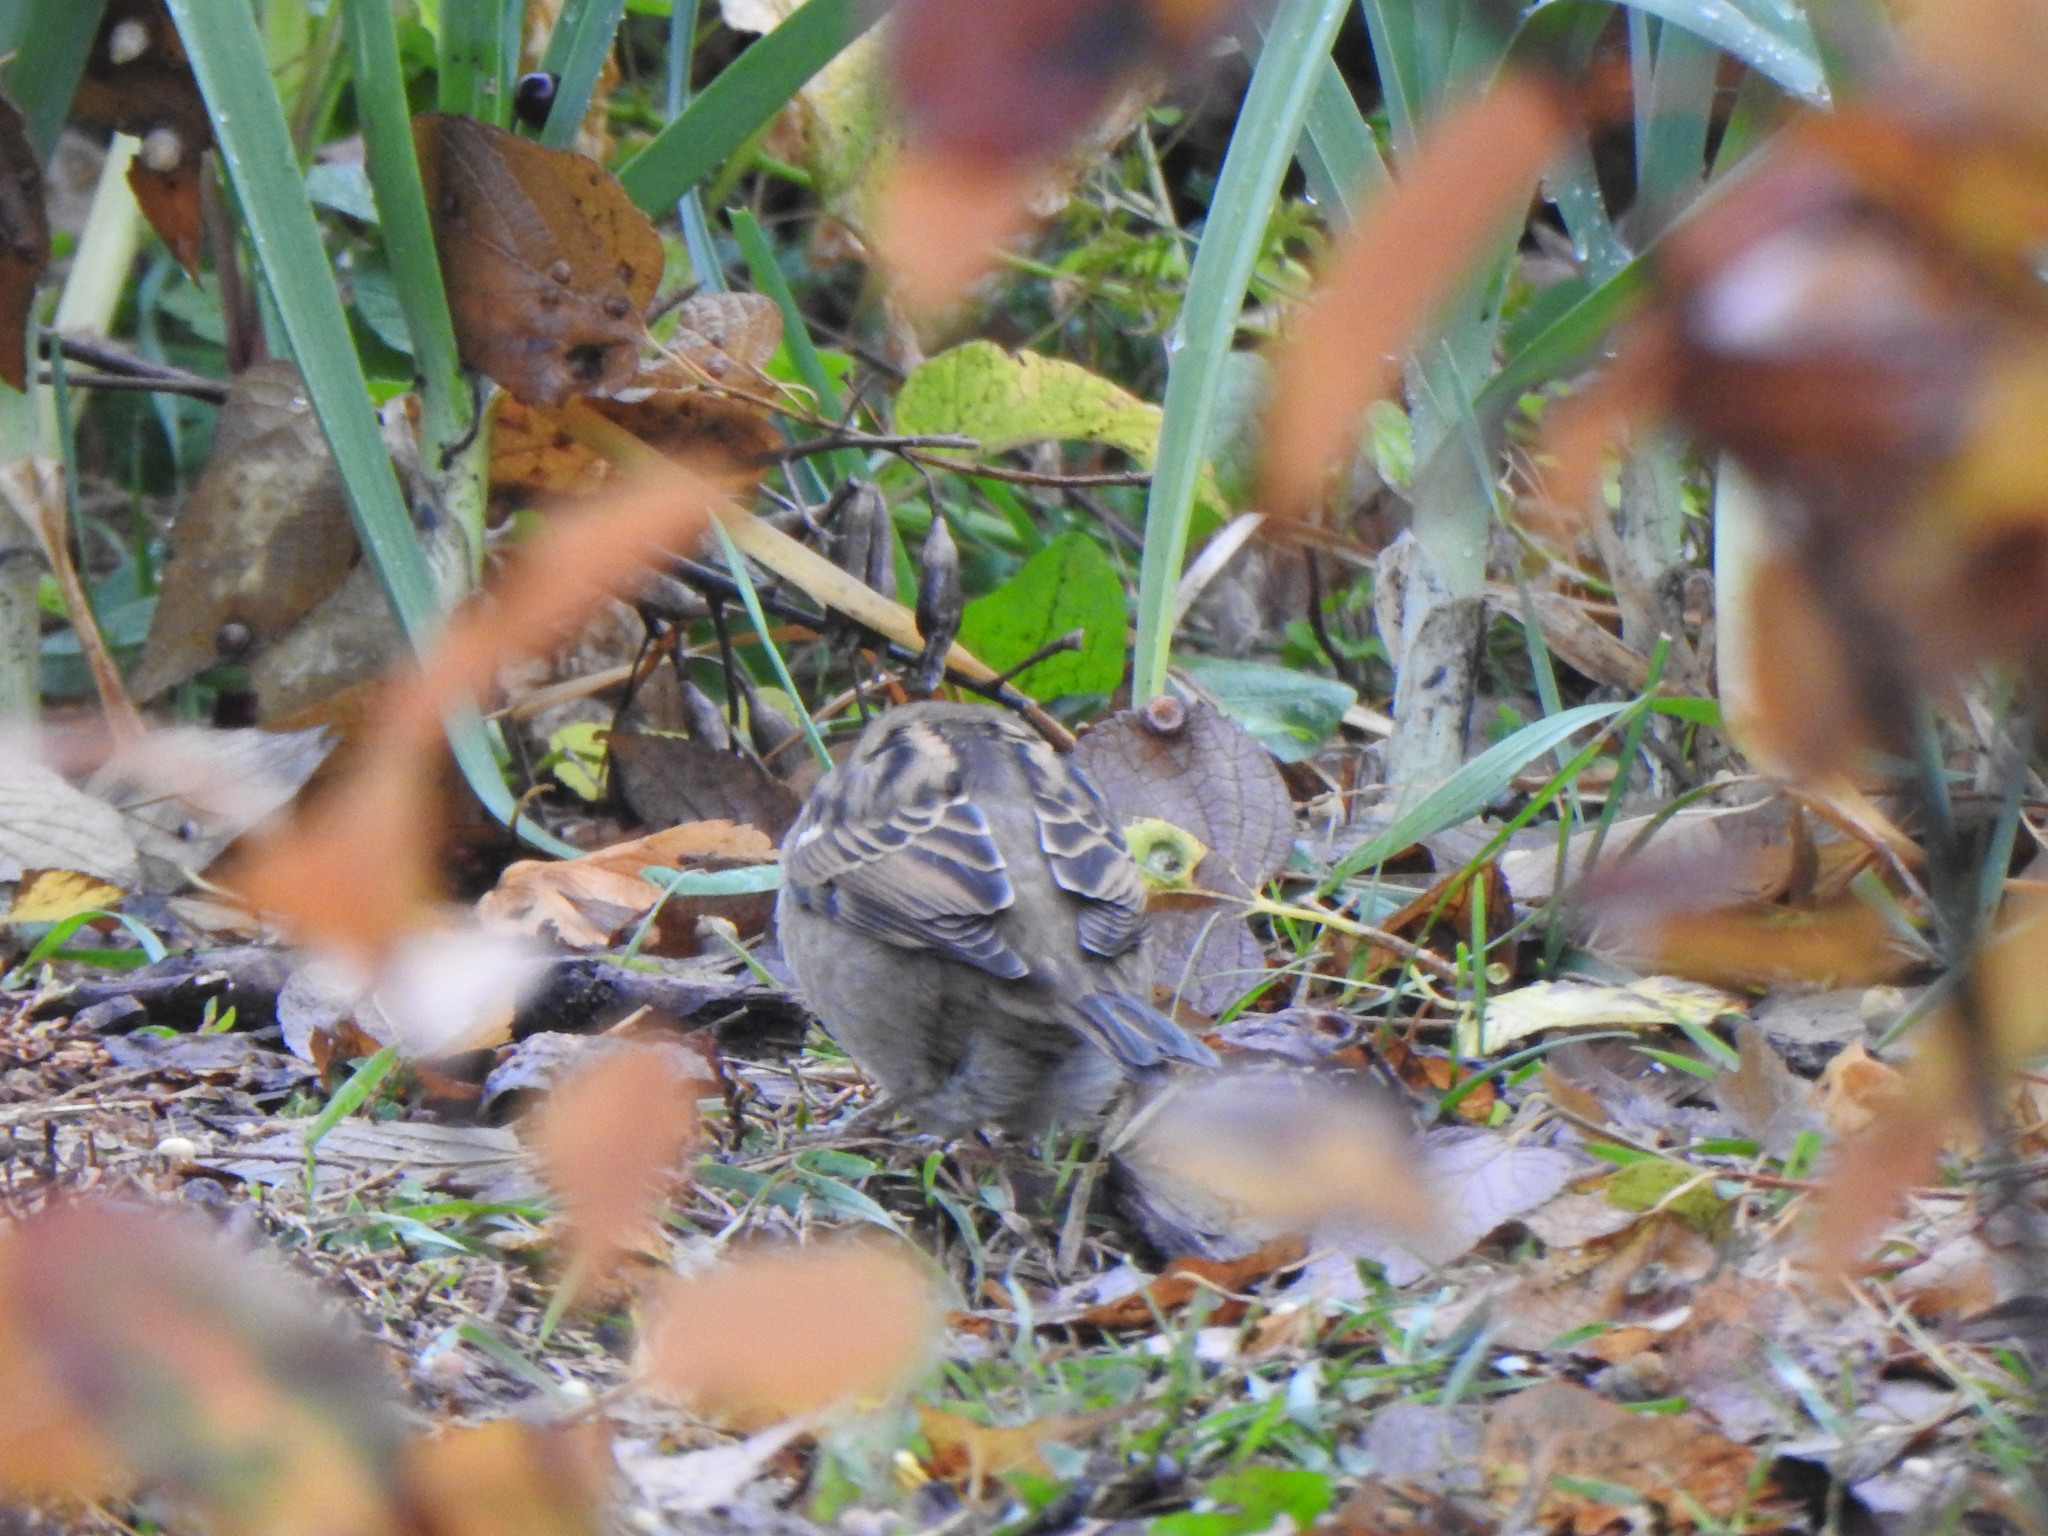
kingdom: Animalia
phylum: Chordata
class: Aves
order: Passeriformes
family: Passeridae
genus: Passer
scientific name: Passer domesticus
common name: House sparrow
